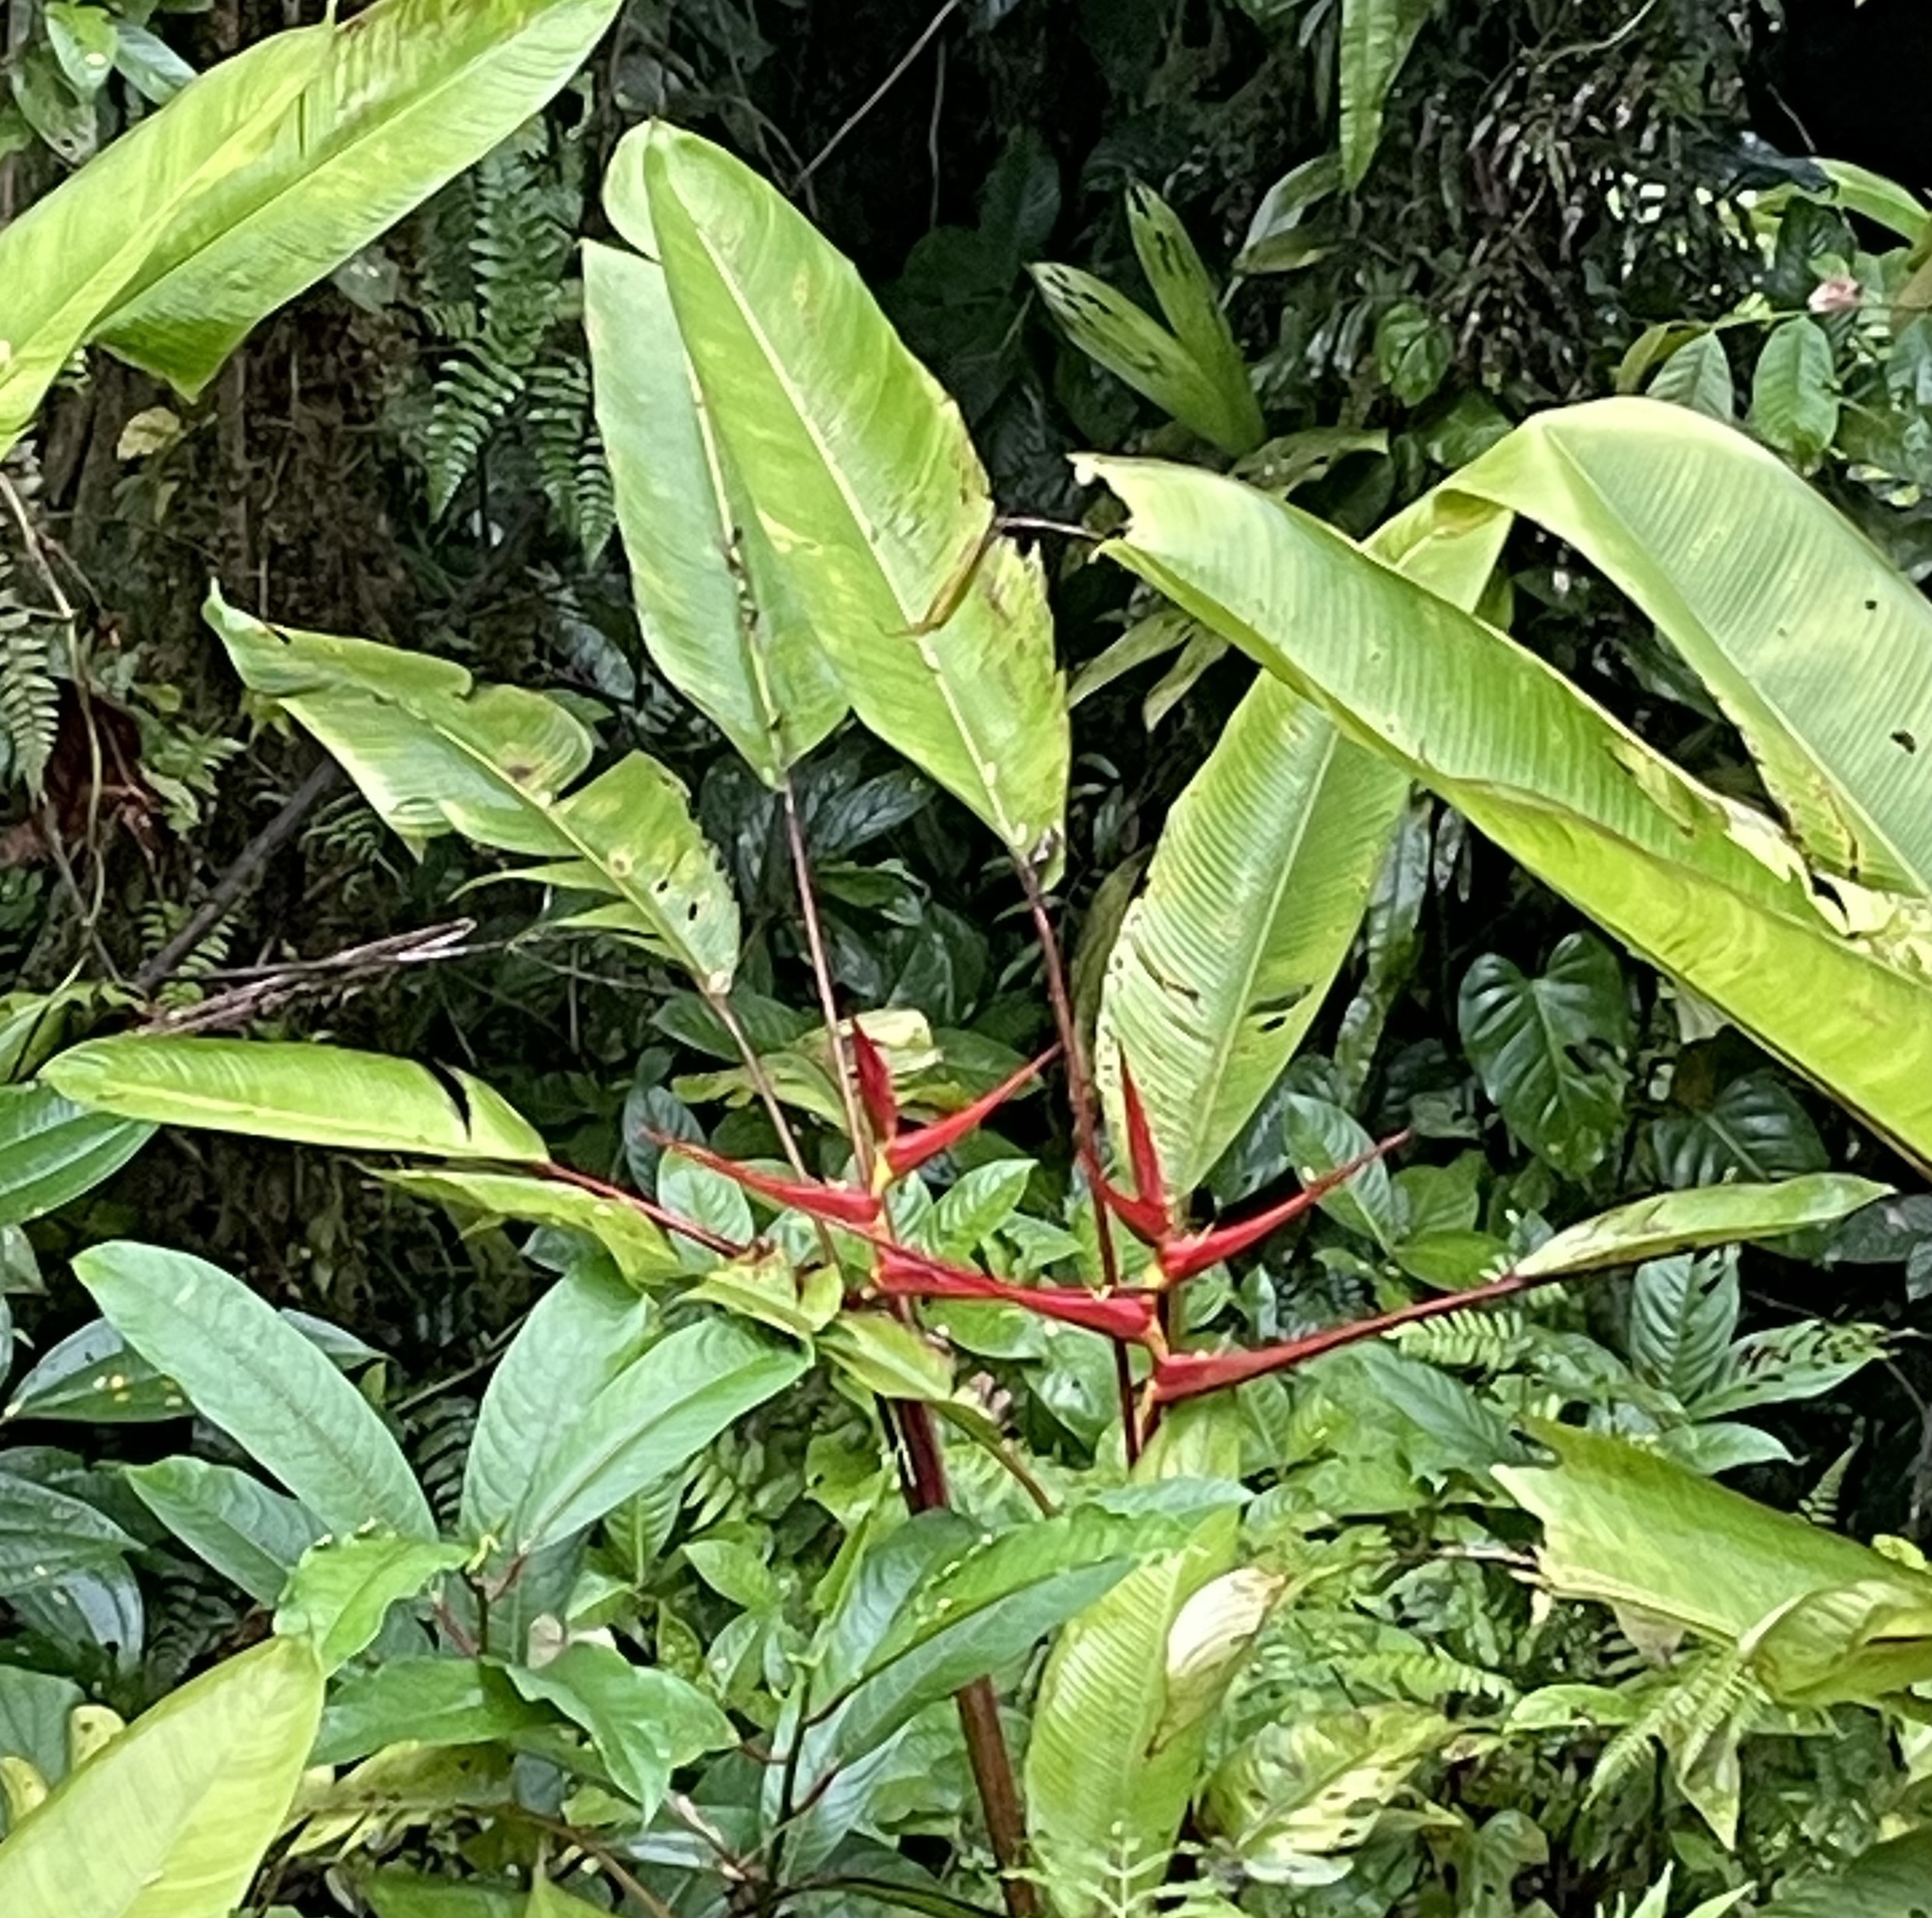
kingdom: Plantae
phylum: Tracheophyta
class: Liliopsida
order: Zingiberales
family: Heliconiaceae
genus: Heliconia
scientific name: Heliconia sarapiquensis
